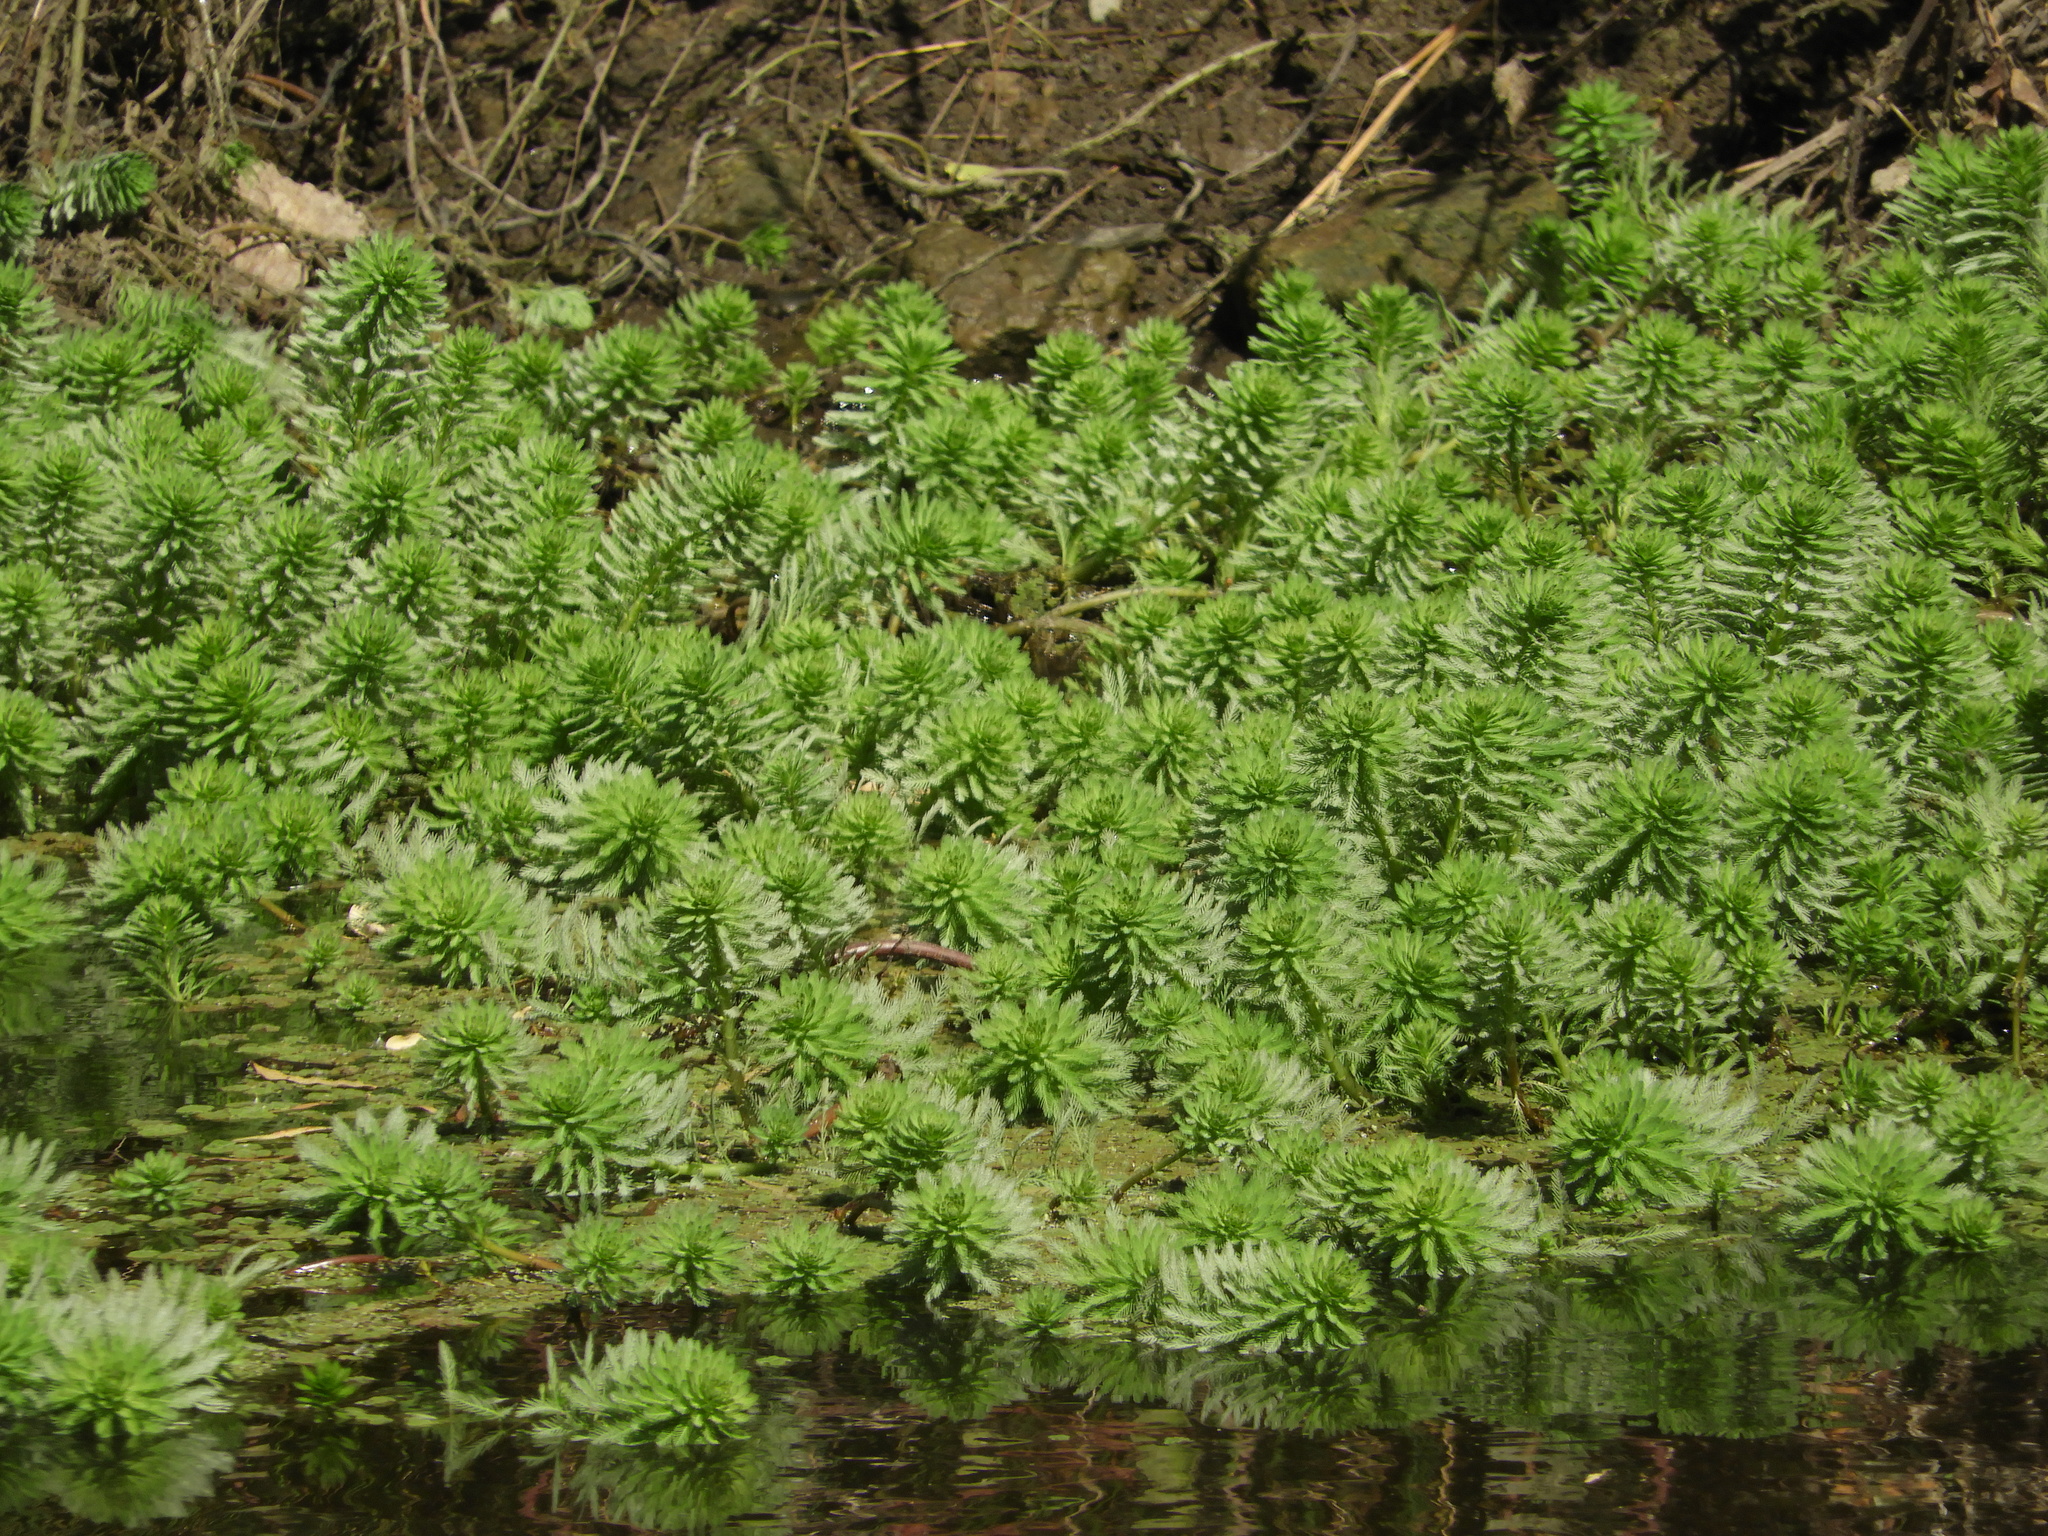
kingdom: Plantae
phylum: Tracheophyta
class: Magnoliopsida
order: Saxifragales
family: Haloragaceae
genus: Myriophyllum
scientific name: Myriophyllum aquaticum
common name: Parrot's feather
